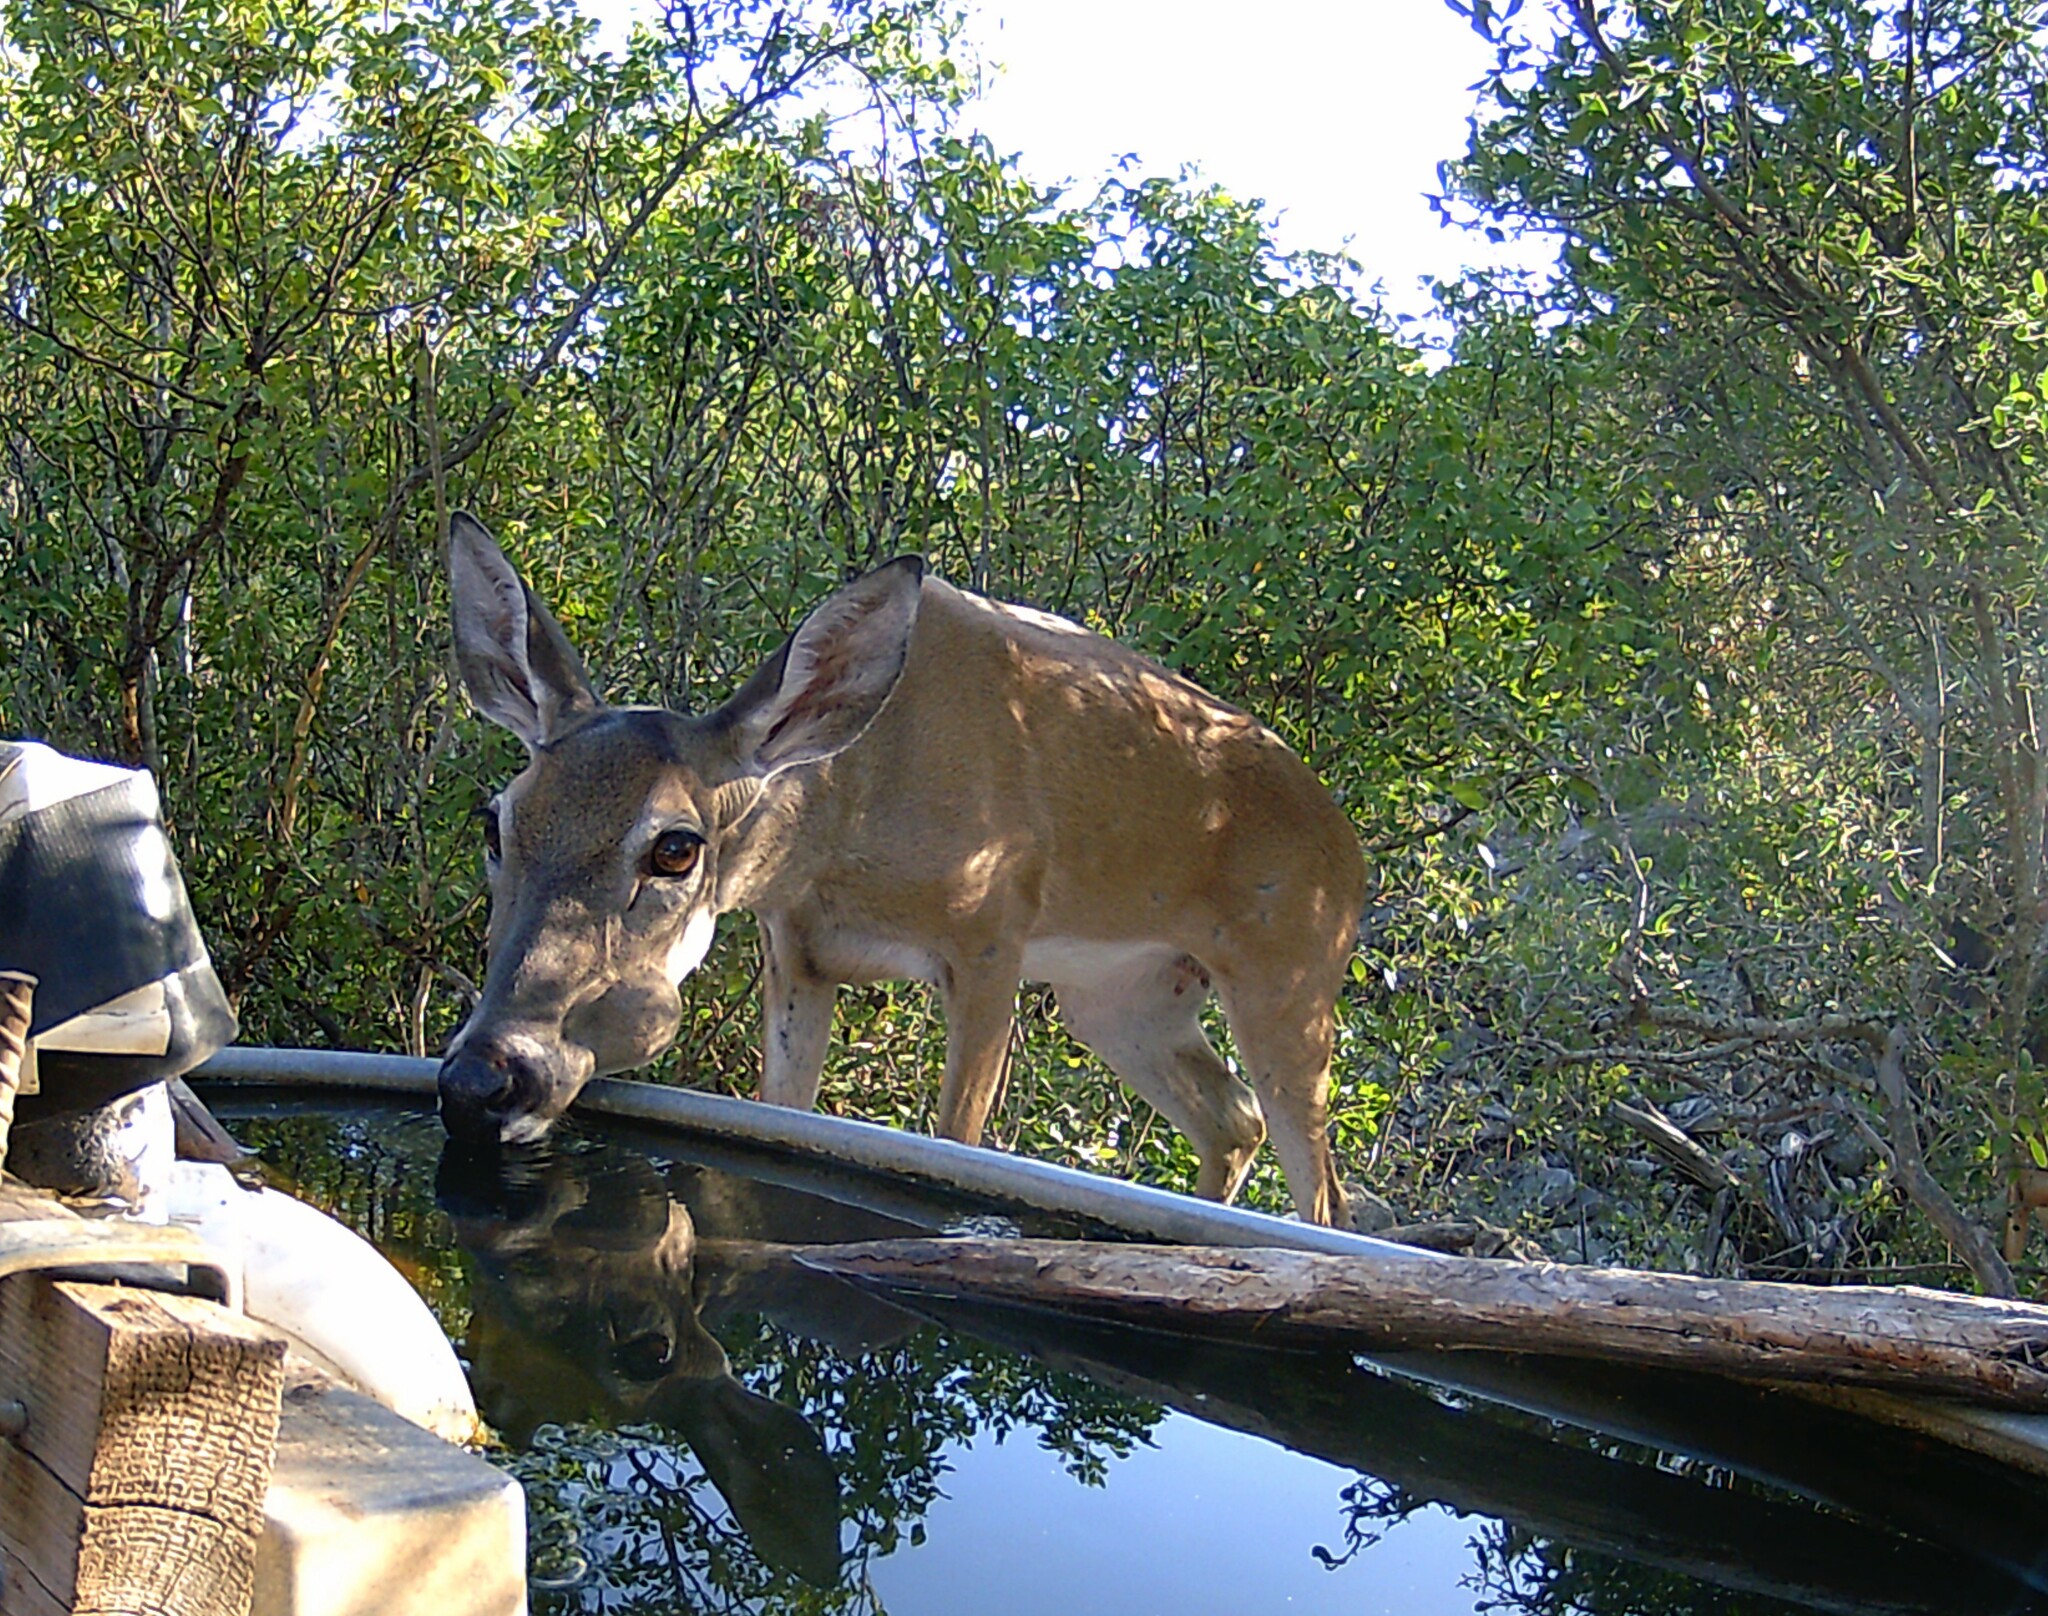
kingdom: Animalia
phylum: Chordata
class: Mammalia
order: Artiodactyla
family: Cervidae
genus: Odocoileus
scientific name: Odocoileus virginianus
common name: White-tailed deer
